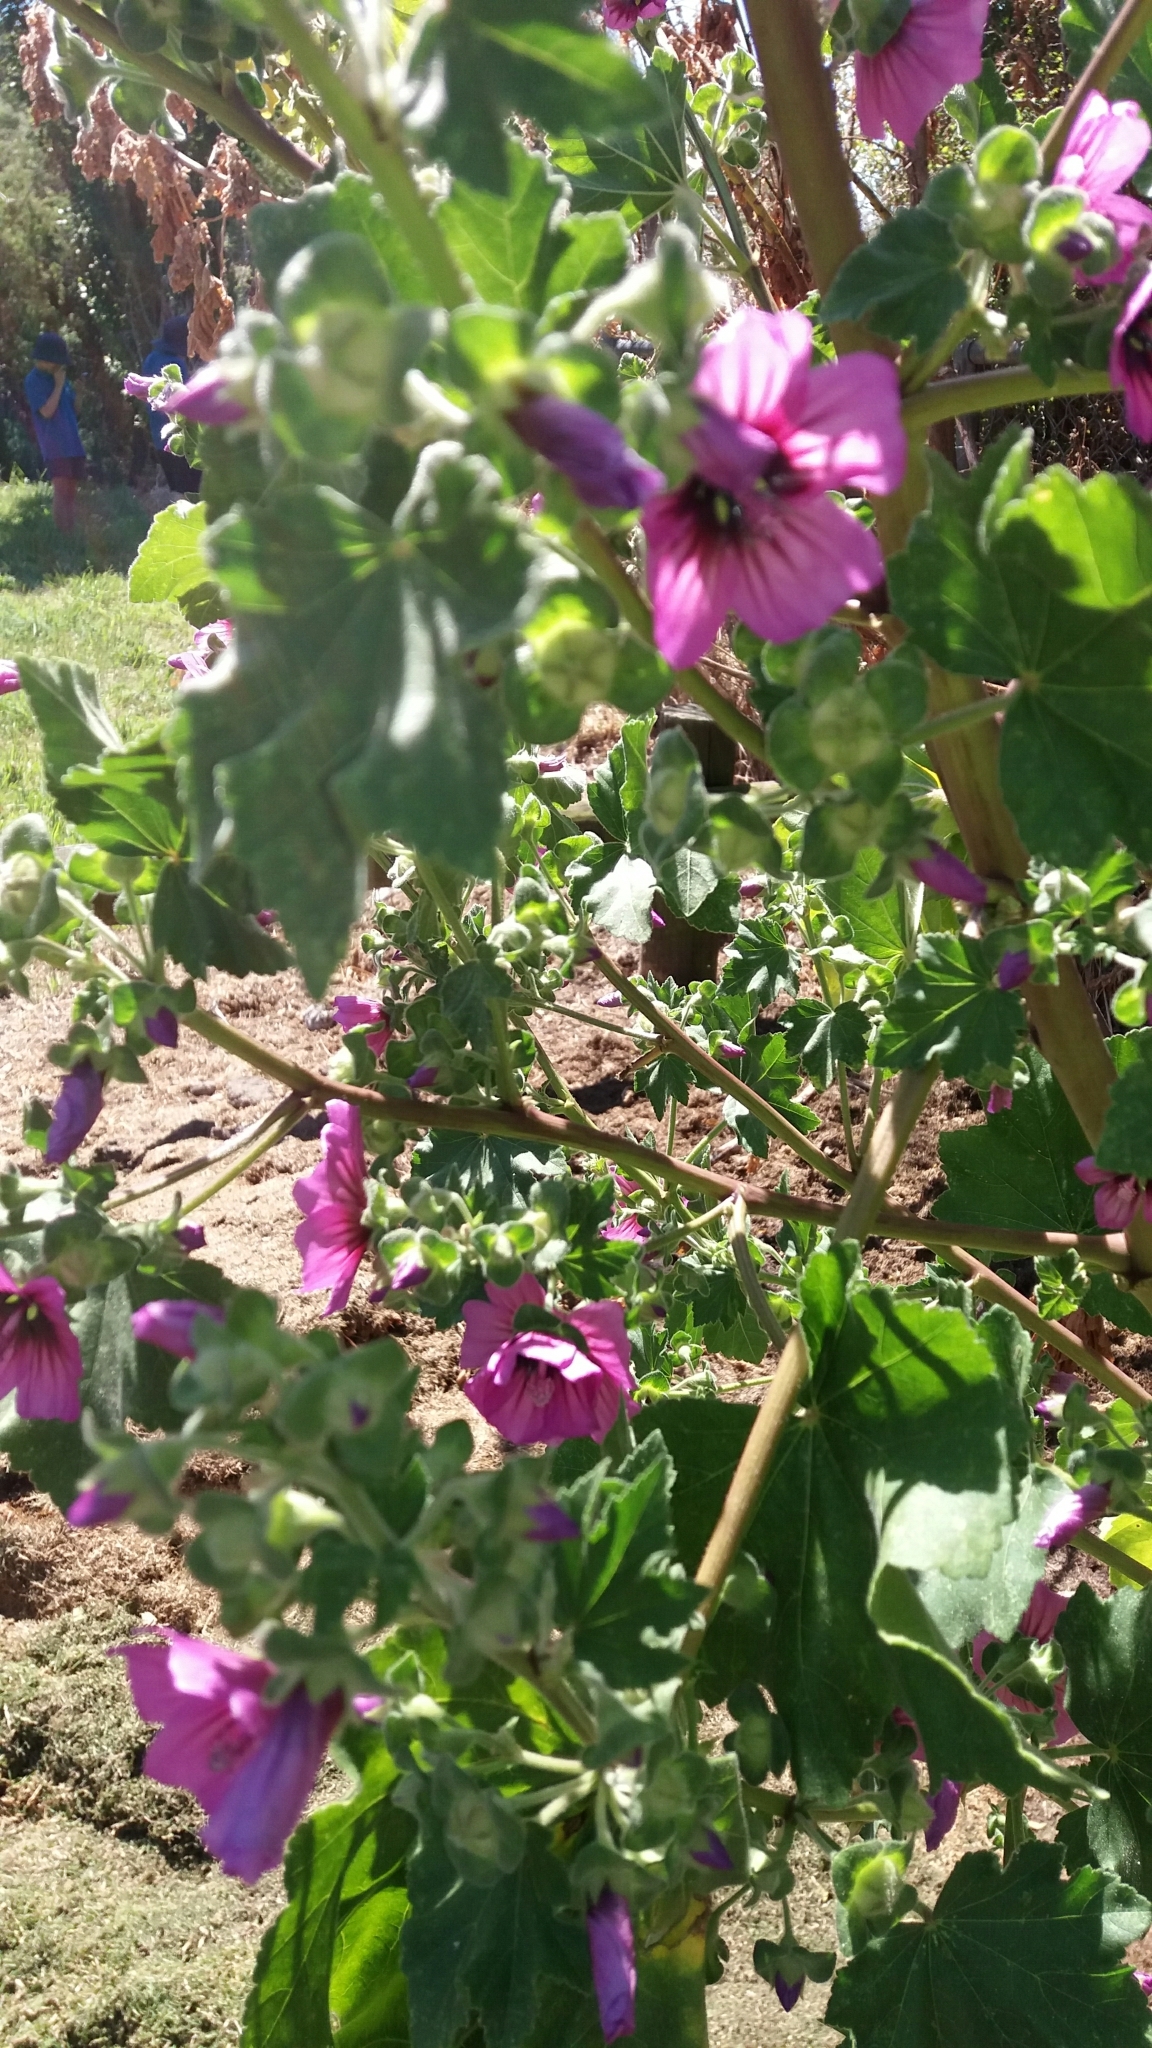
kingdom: Plantae
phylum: Tracheophyta
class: Magnoliopsida
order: Malvales
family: Malvaceae
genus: Malva
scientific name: Malva arborea
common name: Tree mallow
